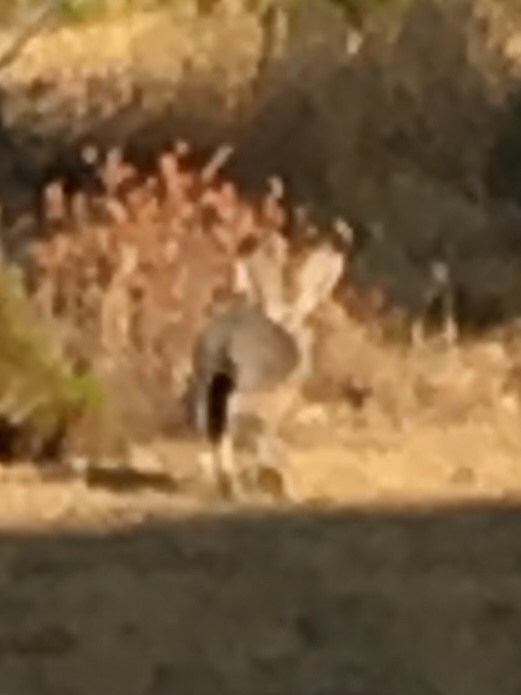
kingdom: Animalia
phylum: Chordata
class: Mammalia
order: Lagomorpha
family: Leporidae
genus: Lepus
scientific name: Lepus californicus
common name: Black-tailed jackrabbit
